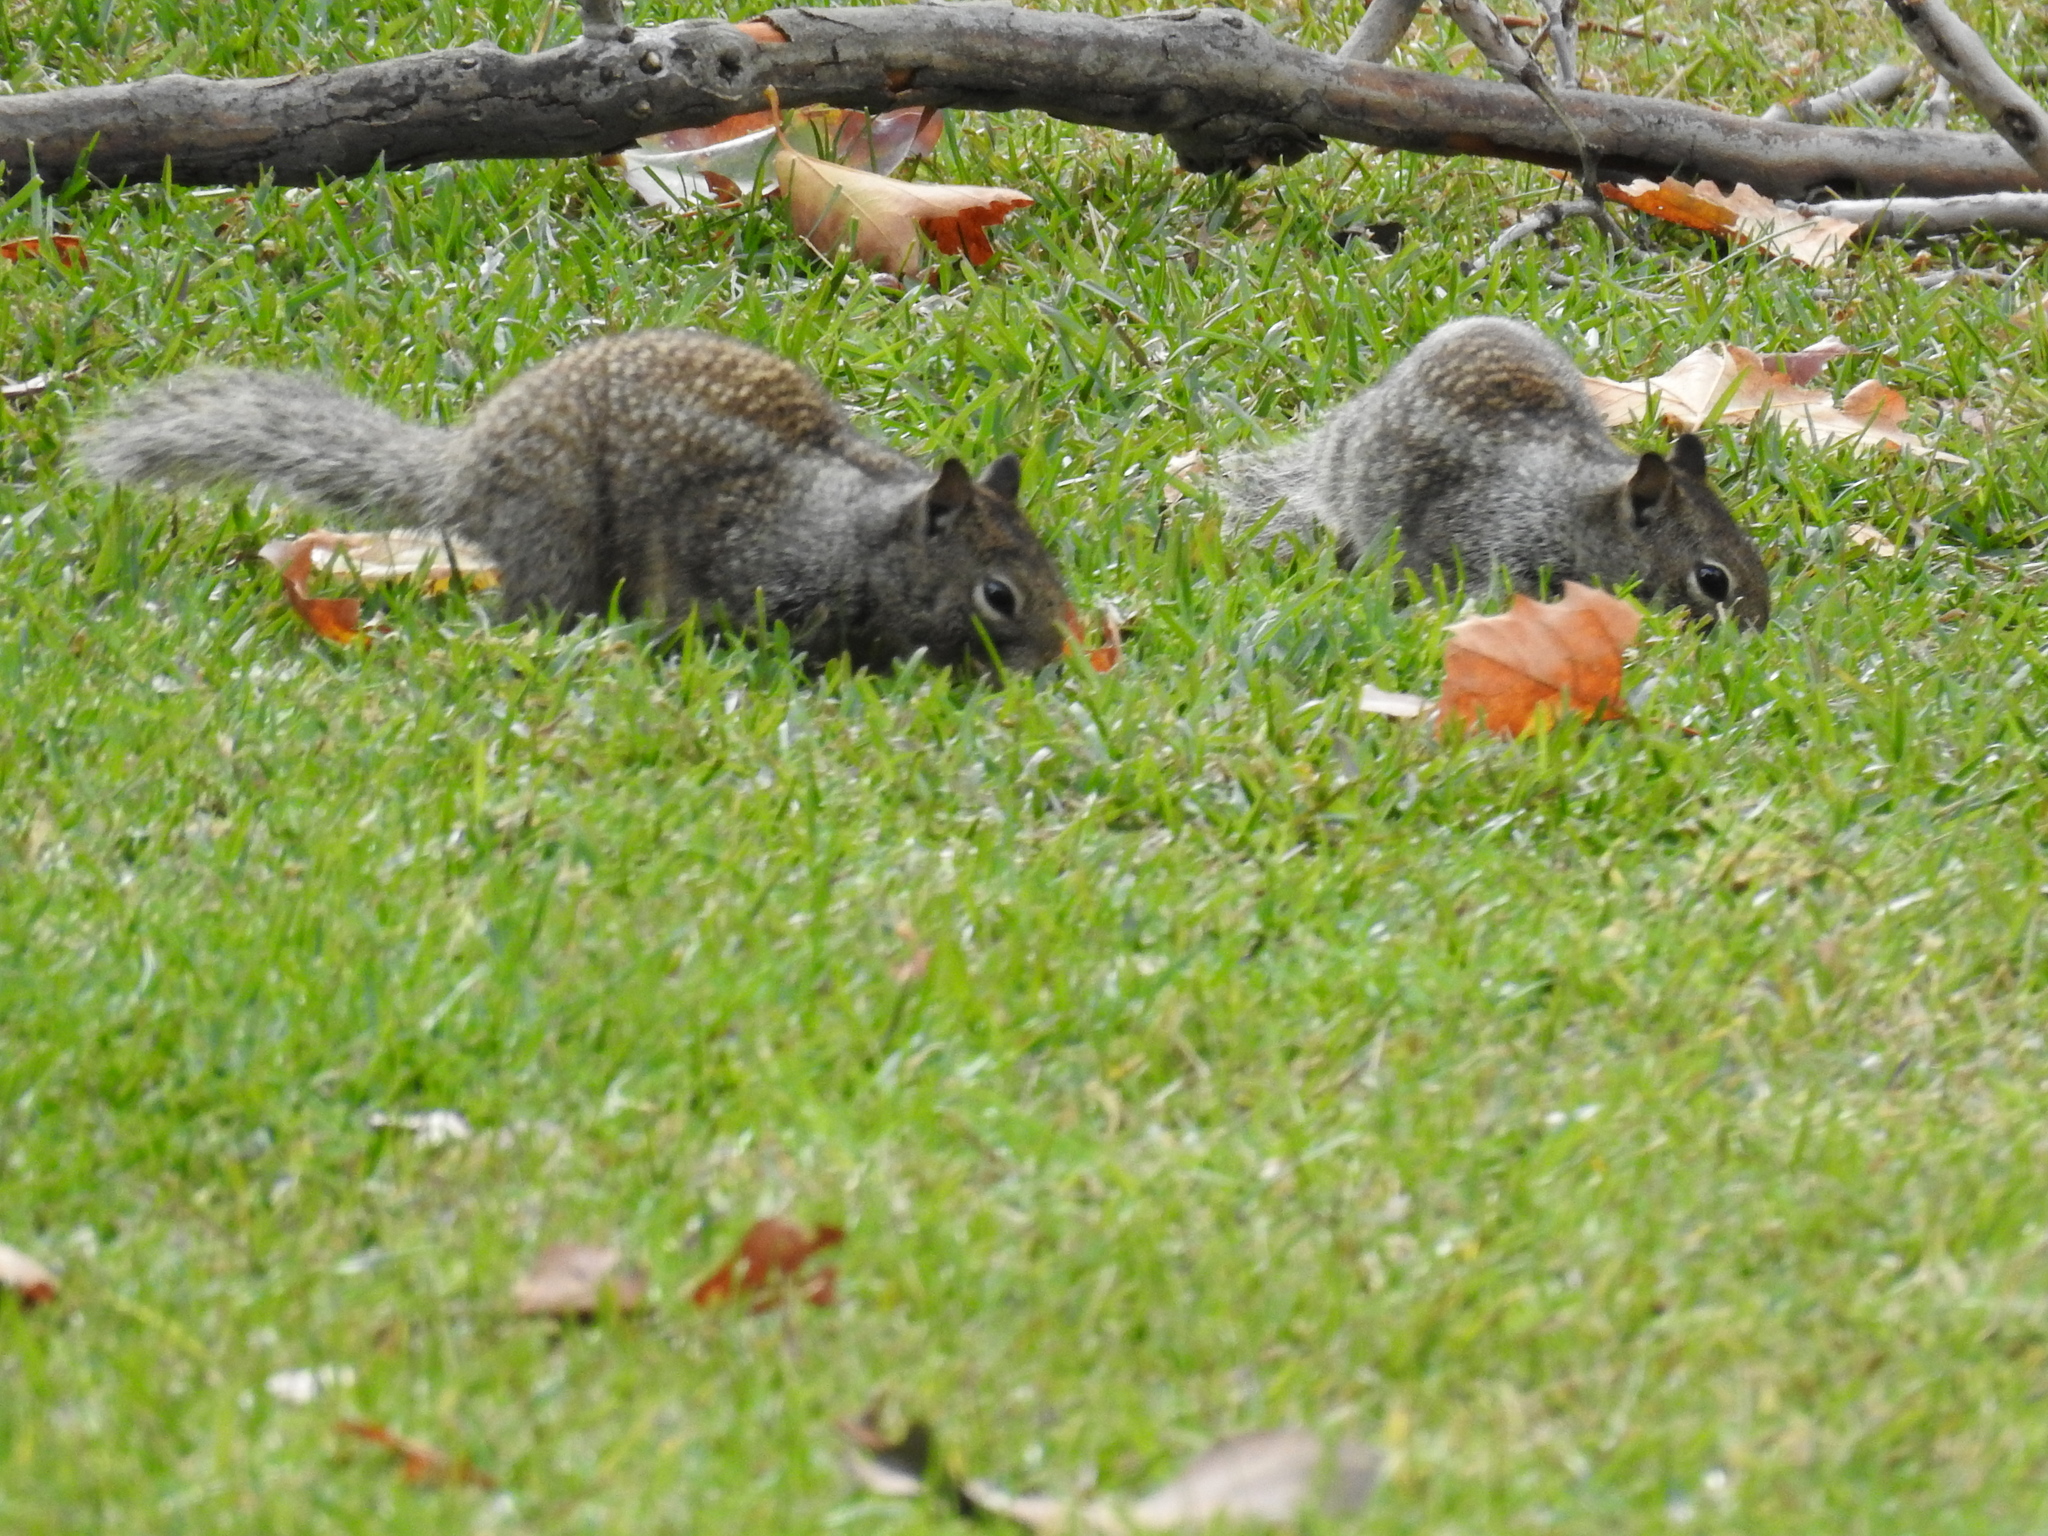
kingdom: Animalia
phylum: Chordata
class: Mammalia
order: Rodentia
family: Sciuridae
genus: Otospermophilus
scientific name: Otospermophilus beecheyi
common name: California ground squirrel
